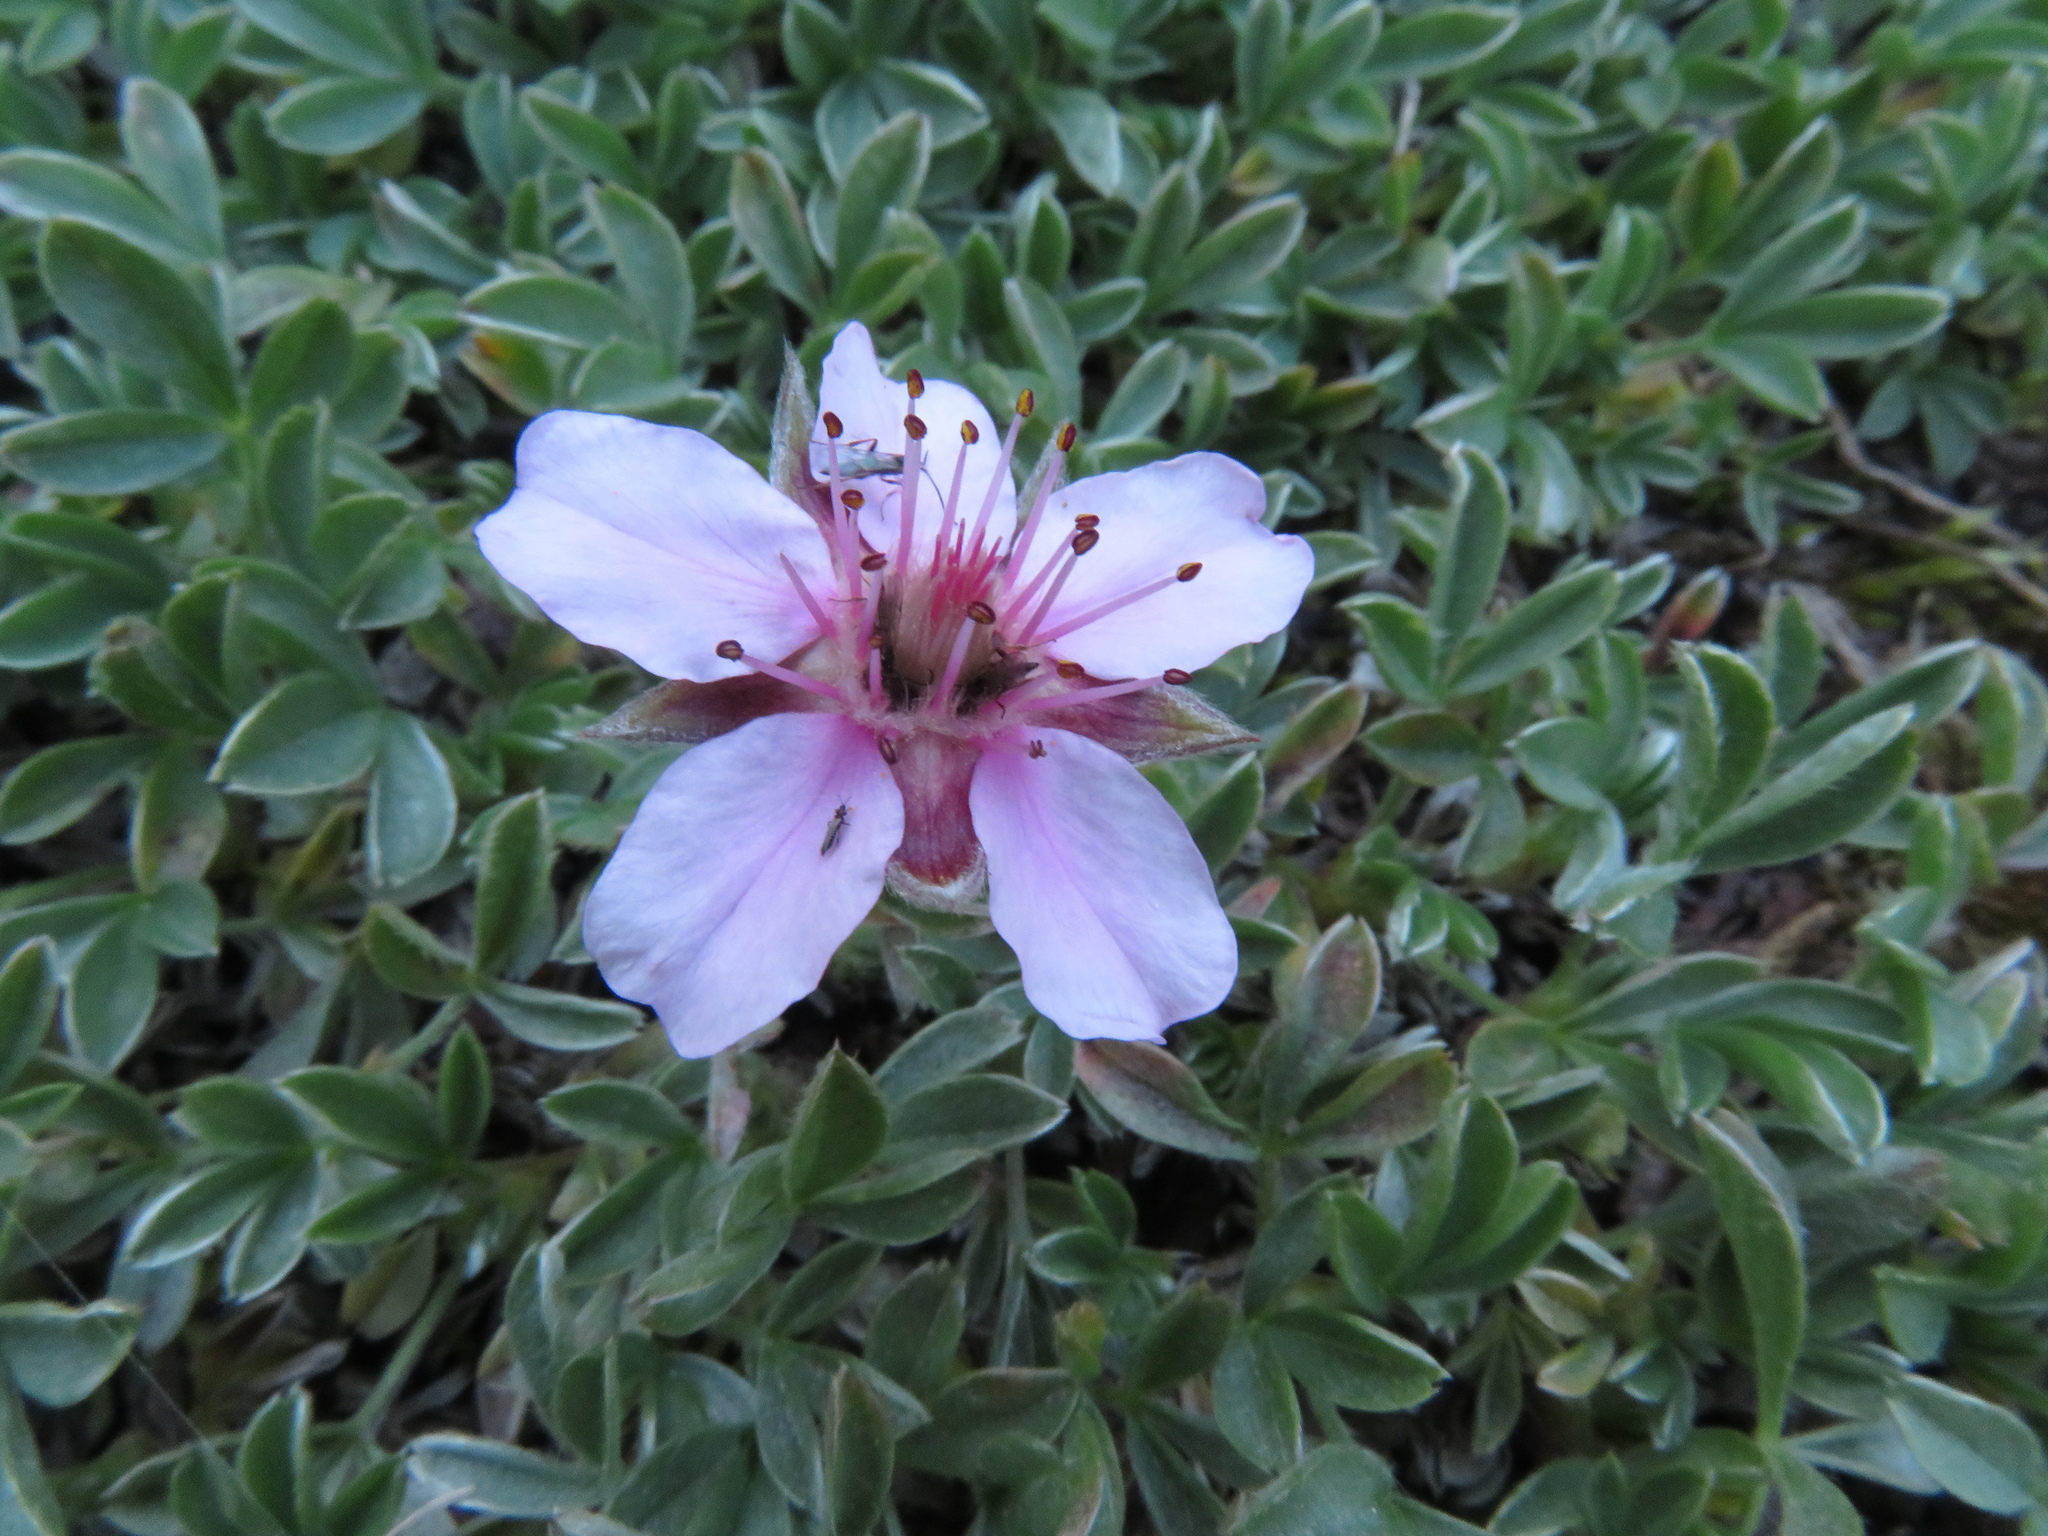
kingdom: Plantae
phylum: Tracheophyta
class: Magnoliopsida
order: Rosales
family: Rosaceae
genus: Potentilla
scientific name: Potentilla nitida
